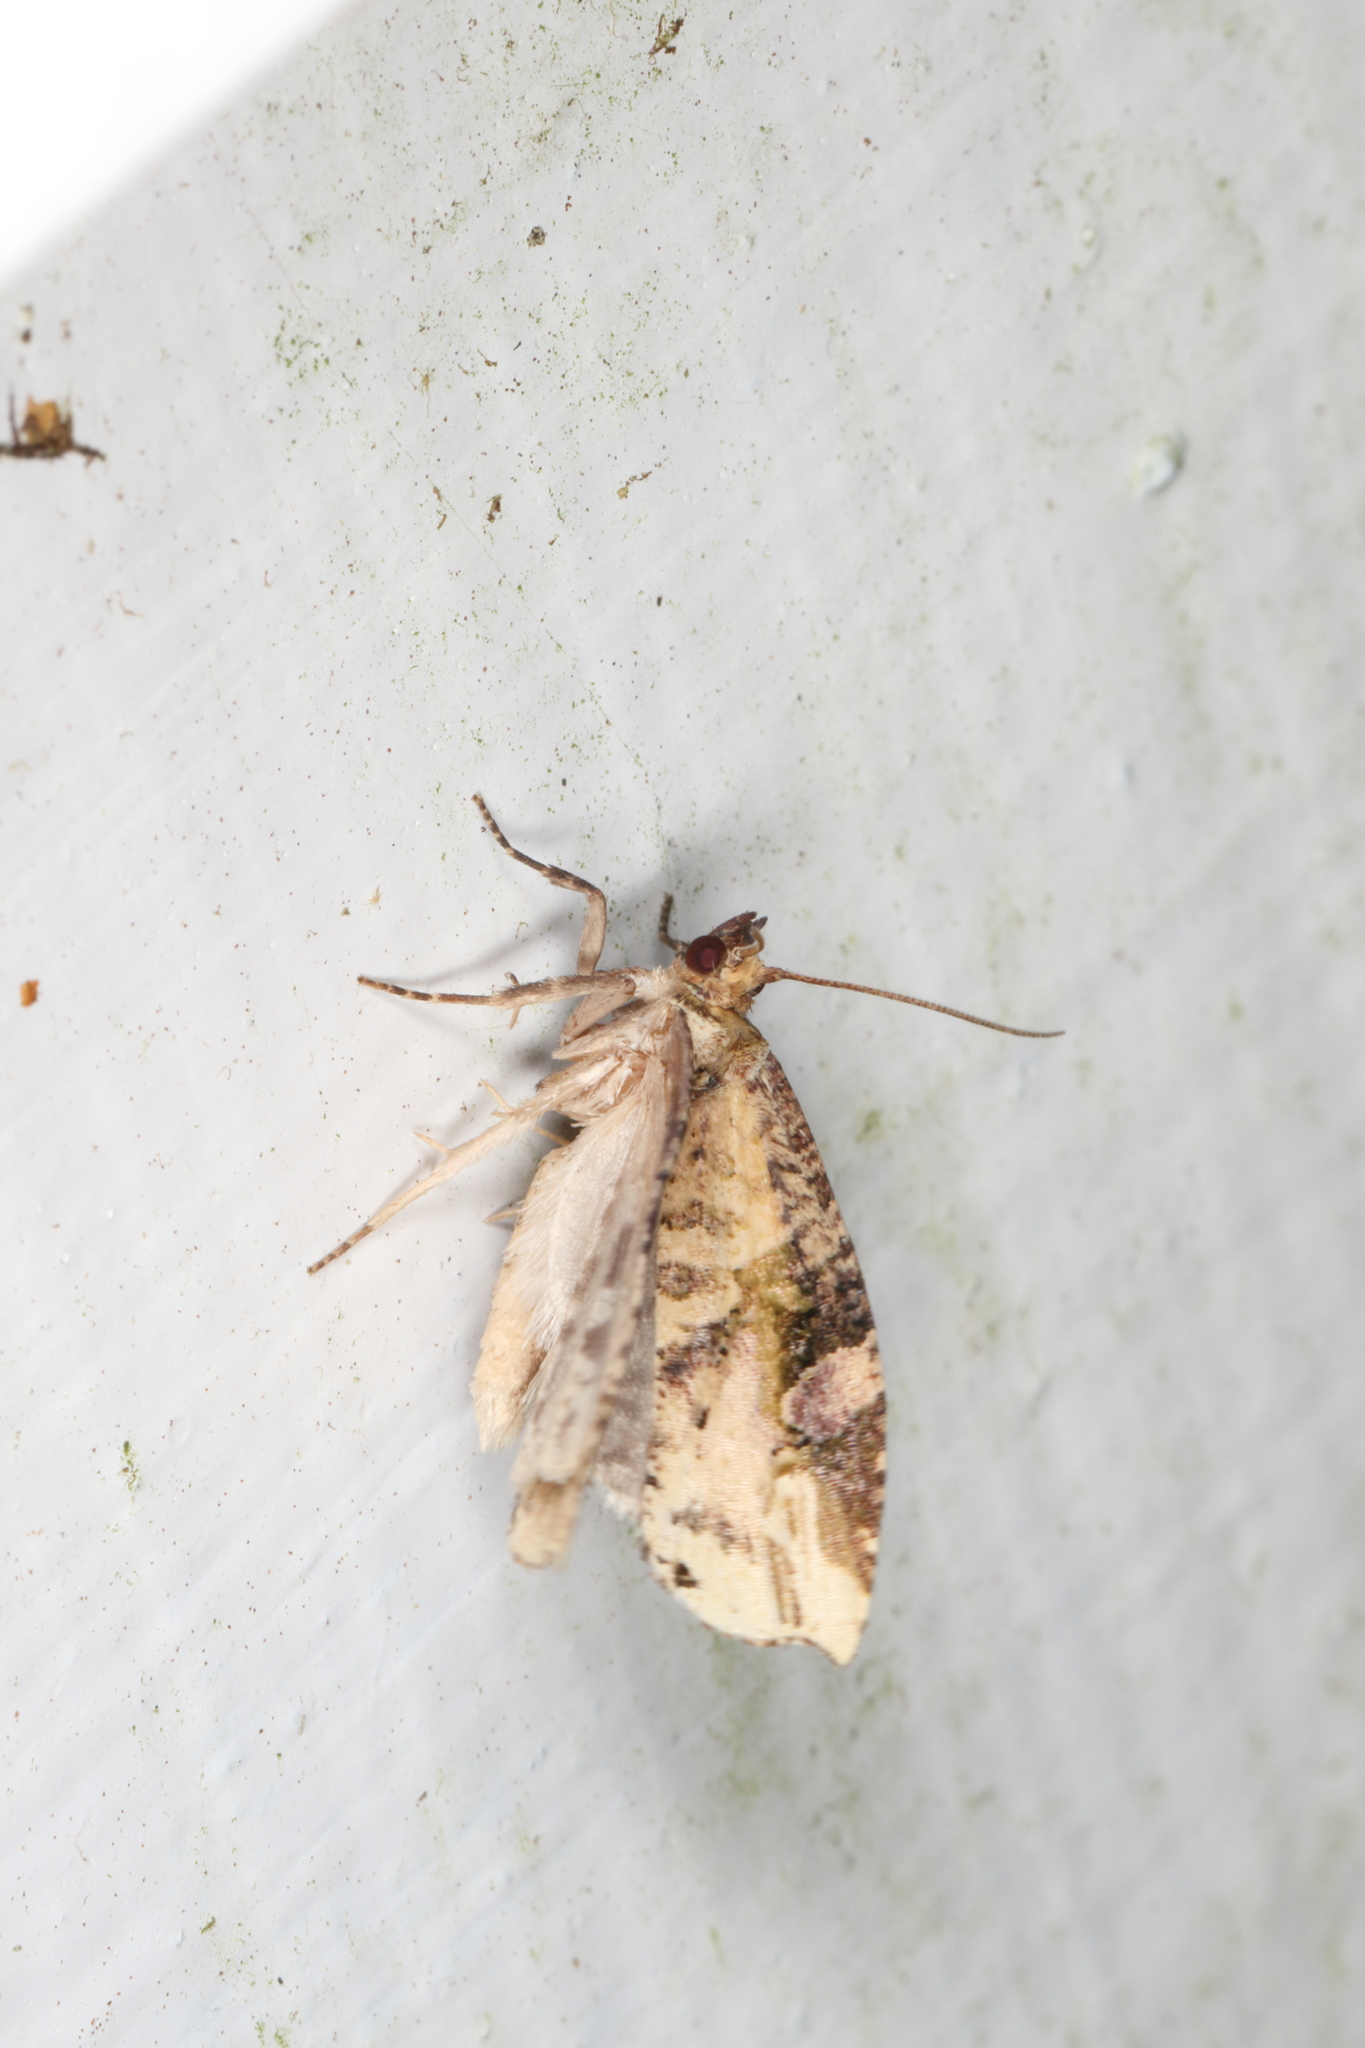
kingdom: Animalia
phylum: Arthropoda
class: Insecta
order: Lepidoptera
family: Tortricidae
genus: Epalxiphora
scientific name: Epalxiphora axenana
